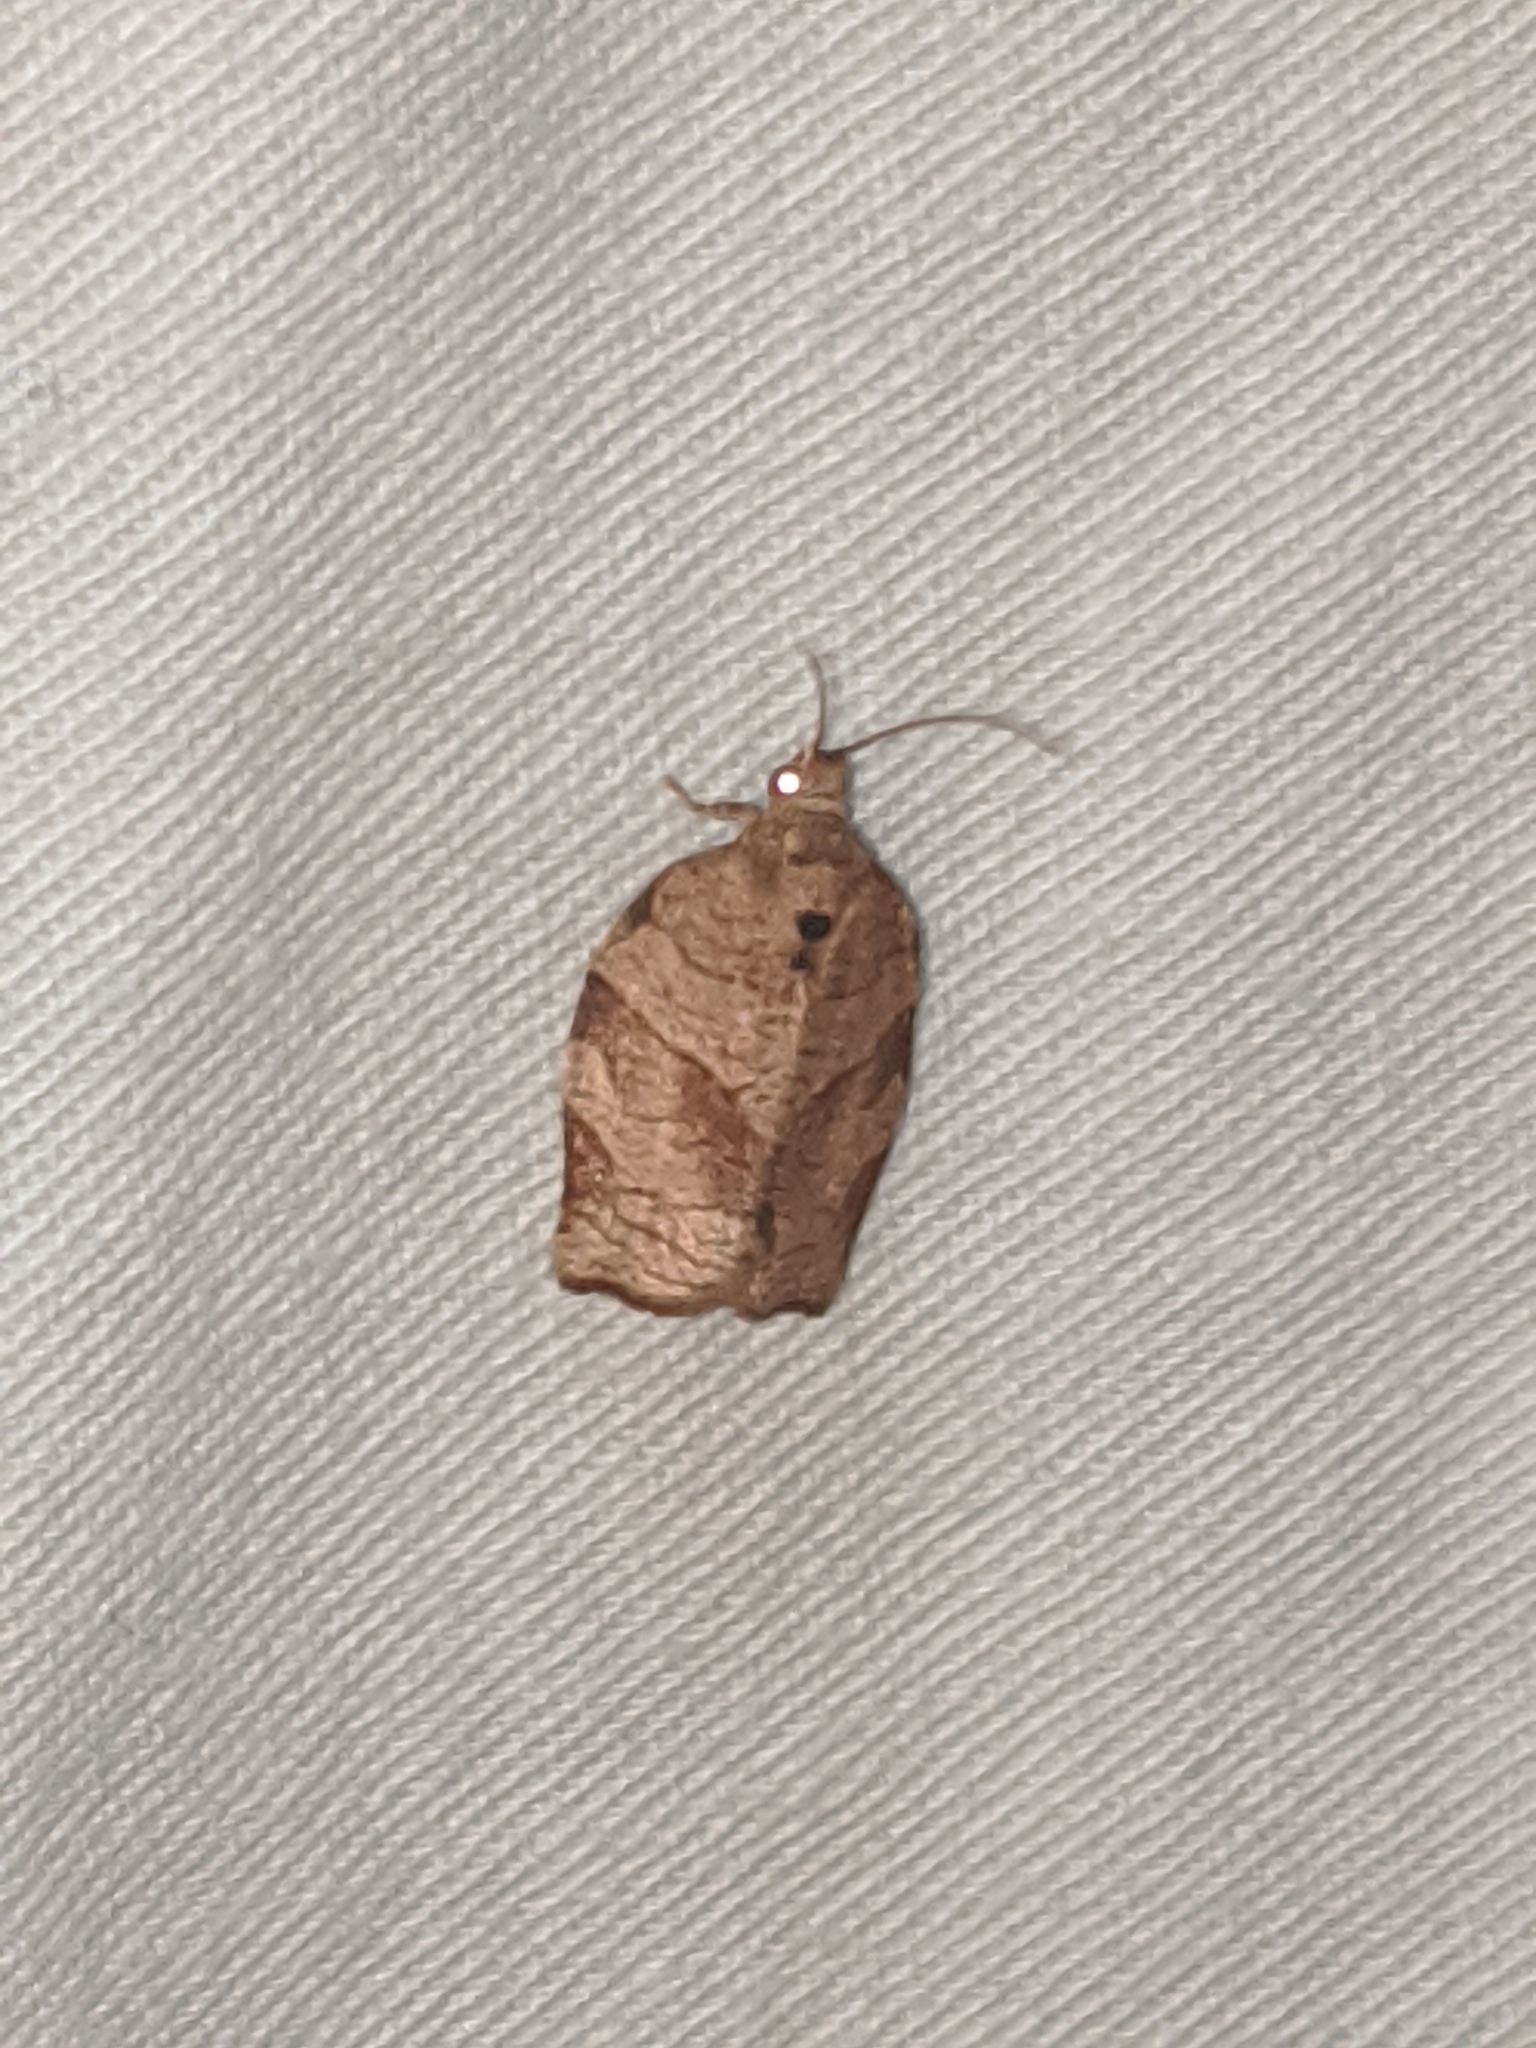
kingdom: Animalia
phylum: Arthropoda
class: Insecta
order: Lepidoptera
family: Tortricidae
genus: Choristoneura
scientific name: Choristoneura rosaceana
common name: Oblique-banded leafroller moth
